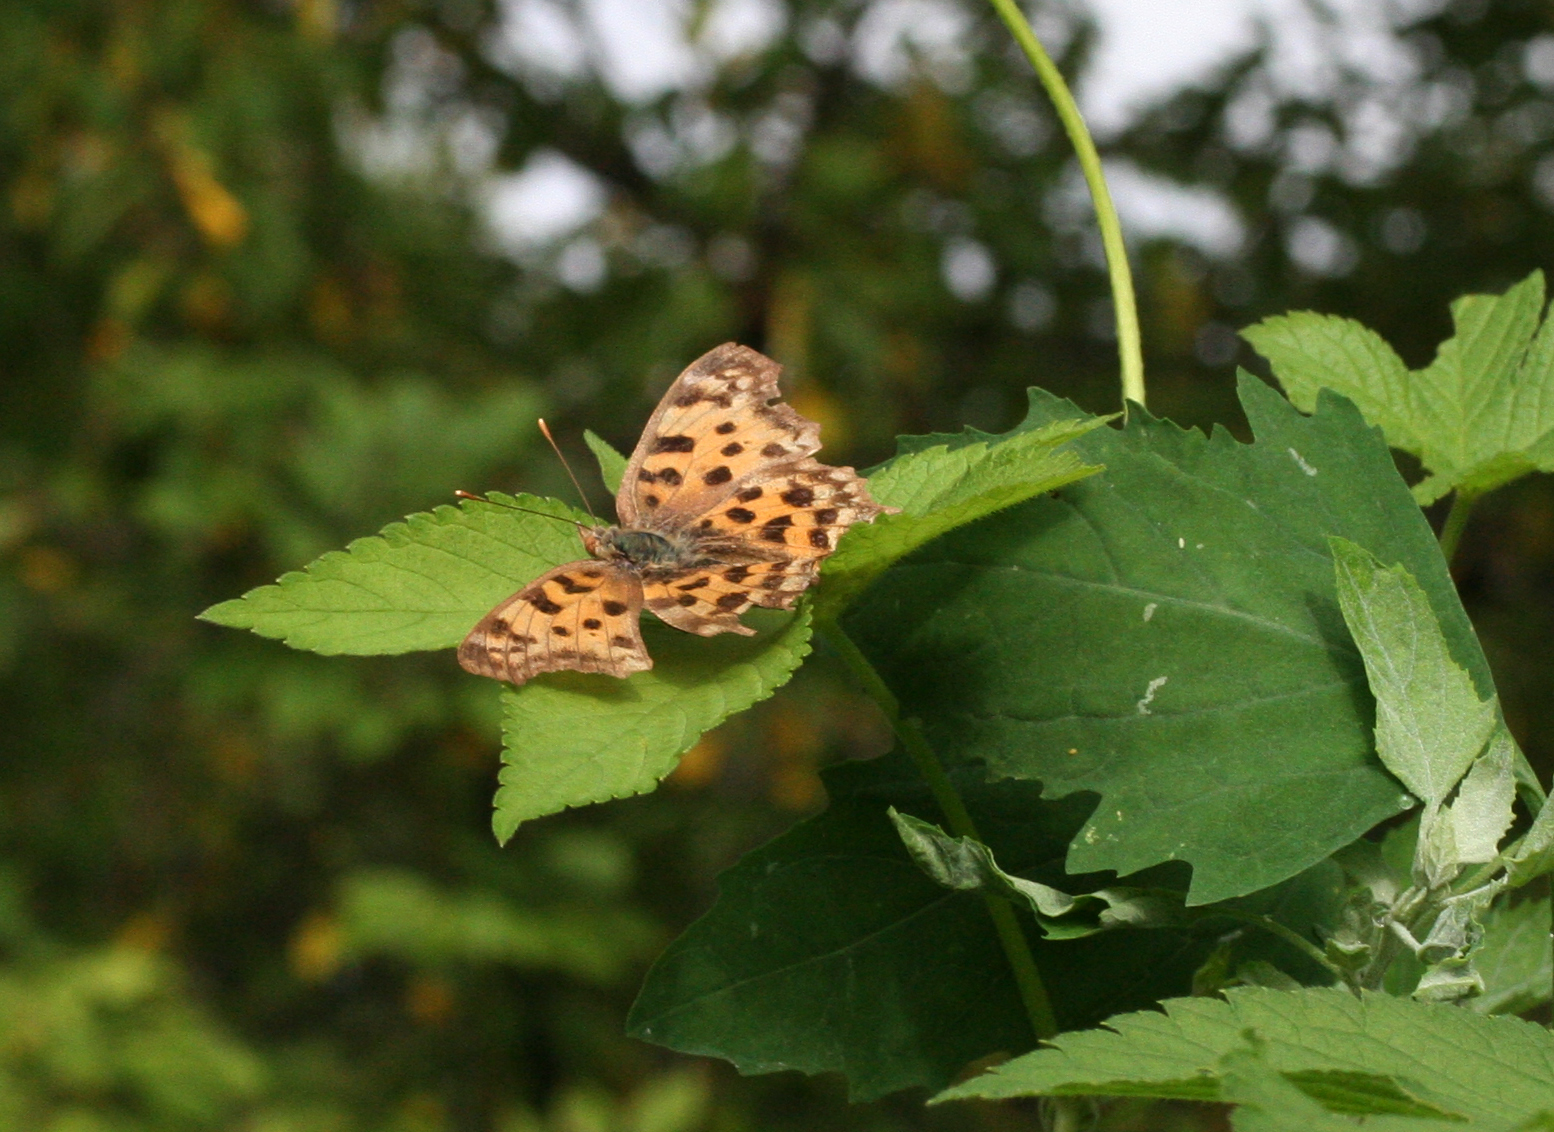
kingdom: Animalia
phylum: Arthropoda
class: Insecta
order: Lepidoptera
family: Nymphalidae
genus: Polygonia
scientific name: Polygonia c-aureum
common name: Asian comma
